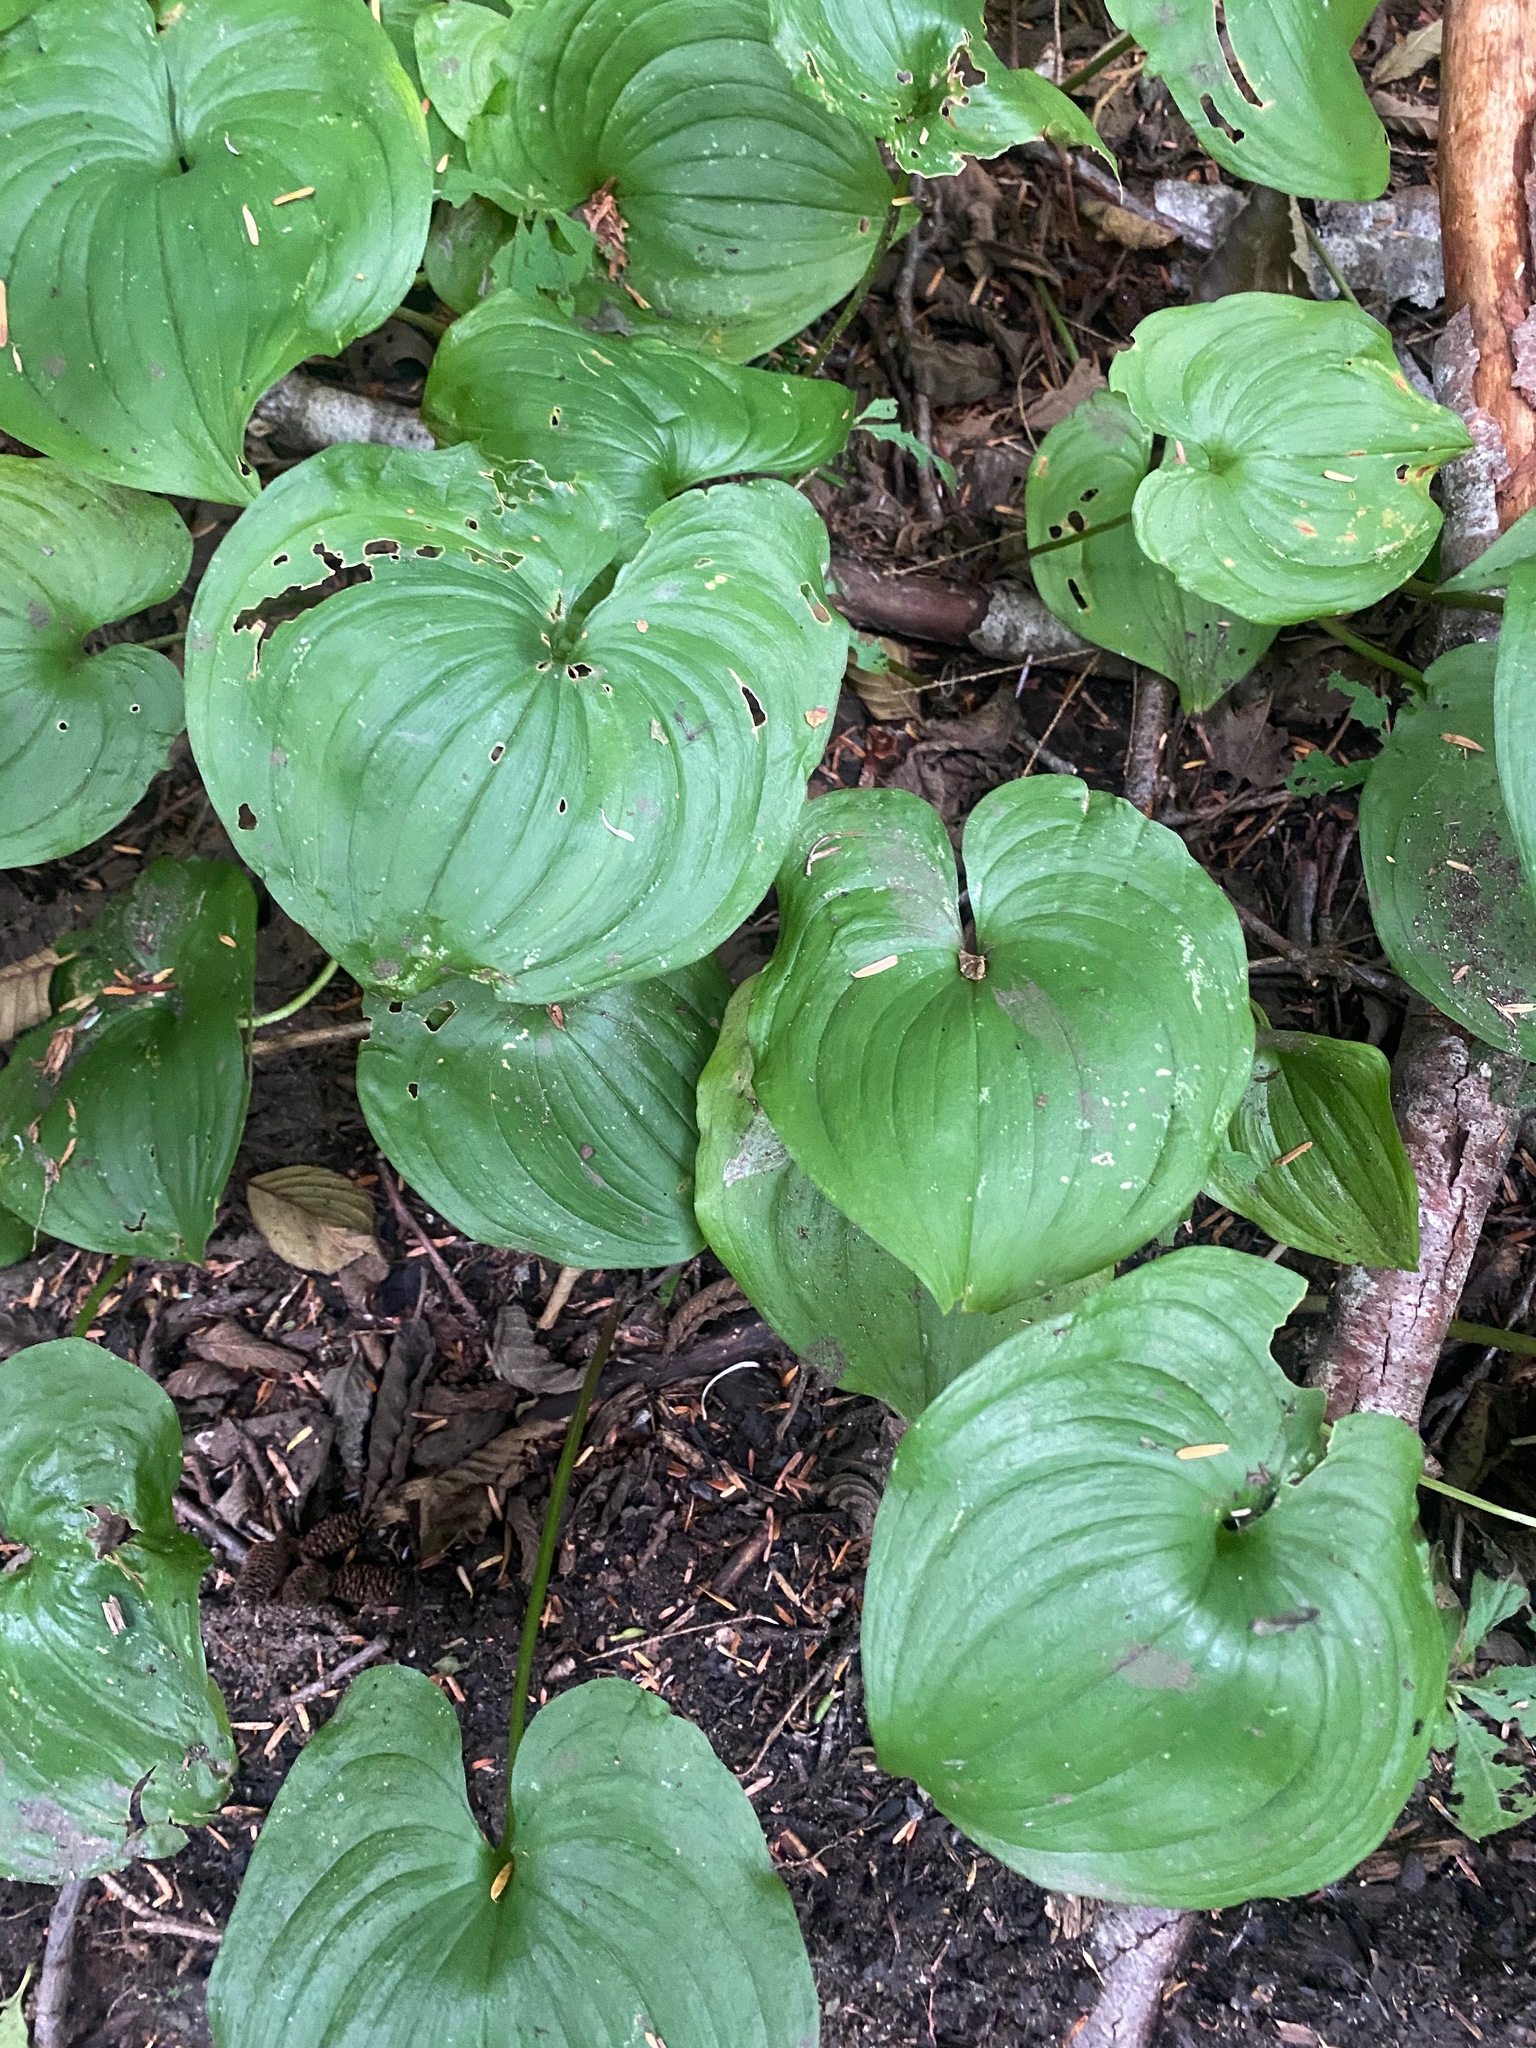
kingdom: Plantae
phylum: Tracheophyta
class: Liliopsida
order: Asparagales
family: Asparagaceae
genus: Maianthemum
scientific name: Maianthemum dilatatum
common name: False lily-of-the-valley
